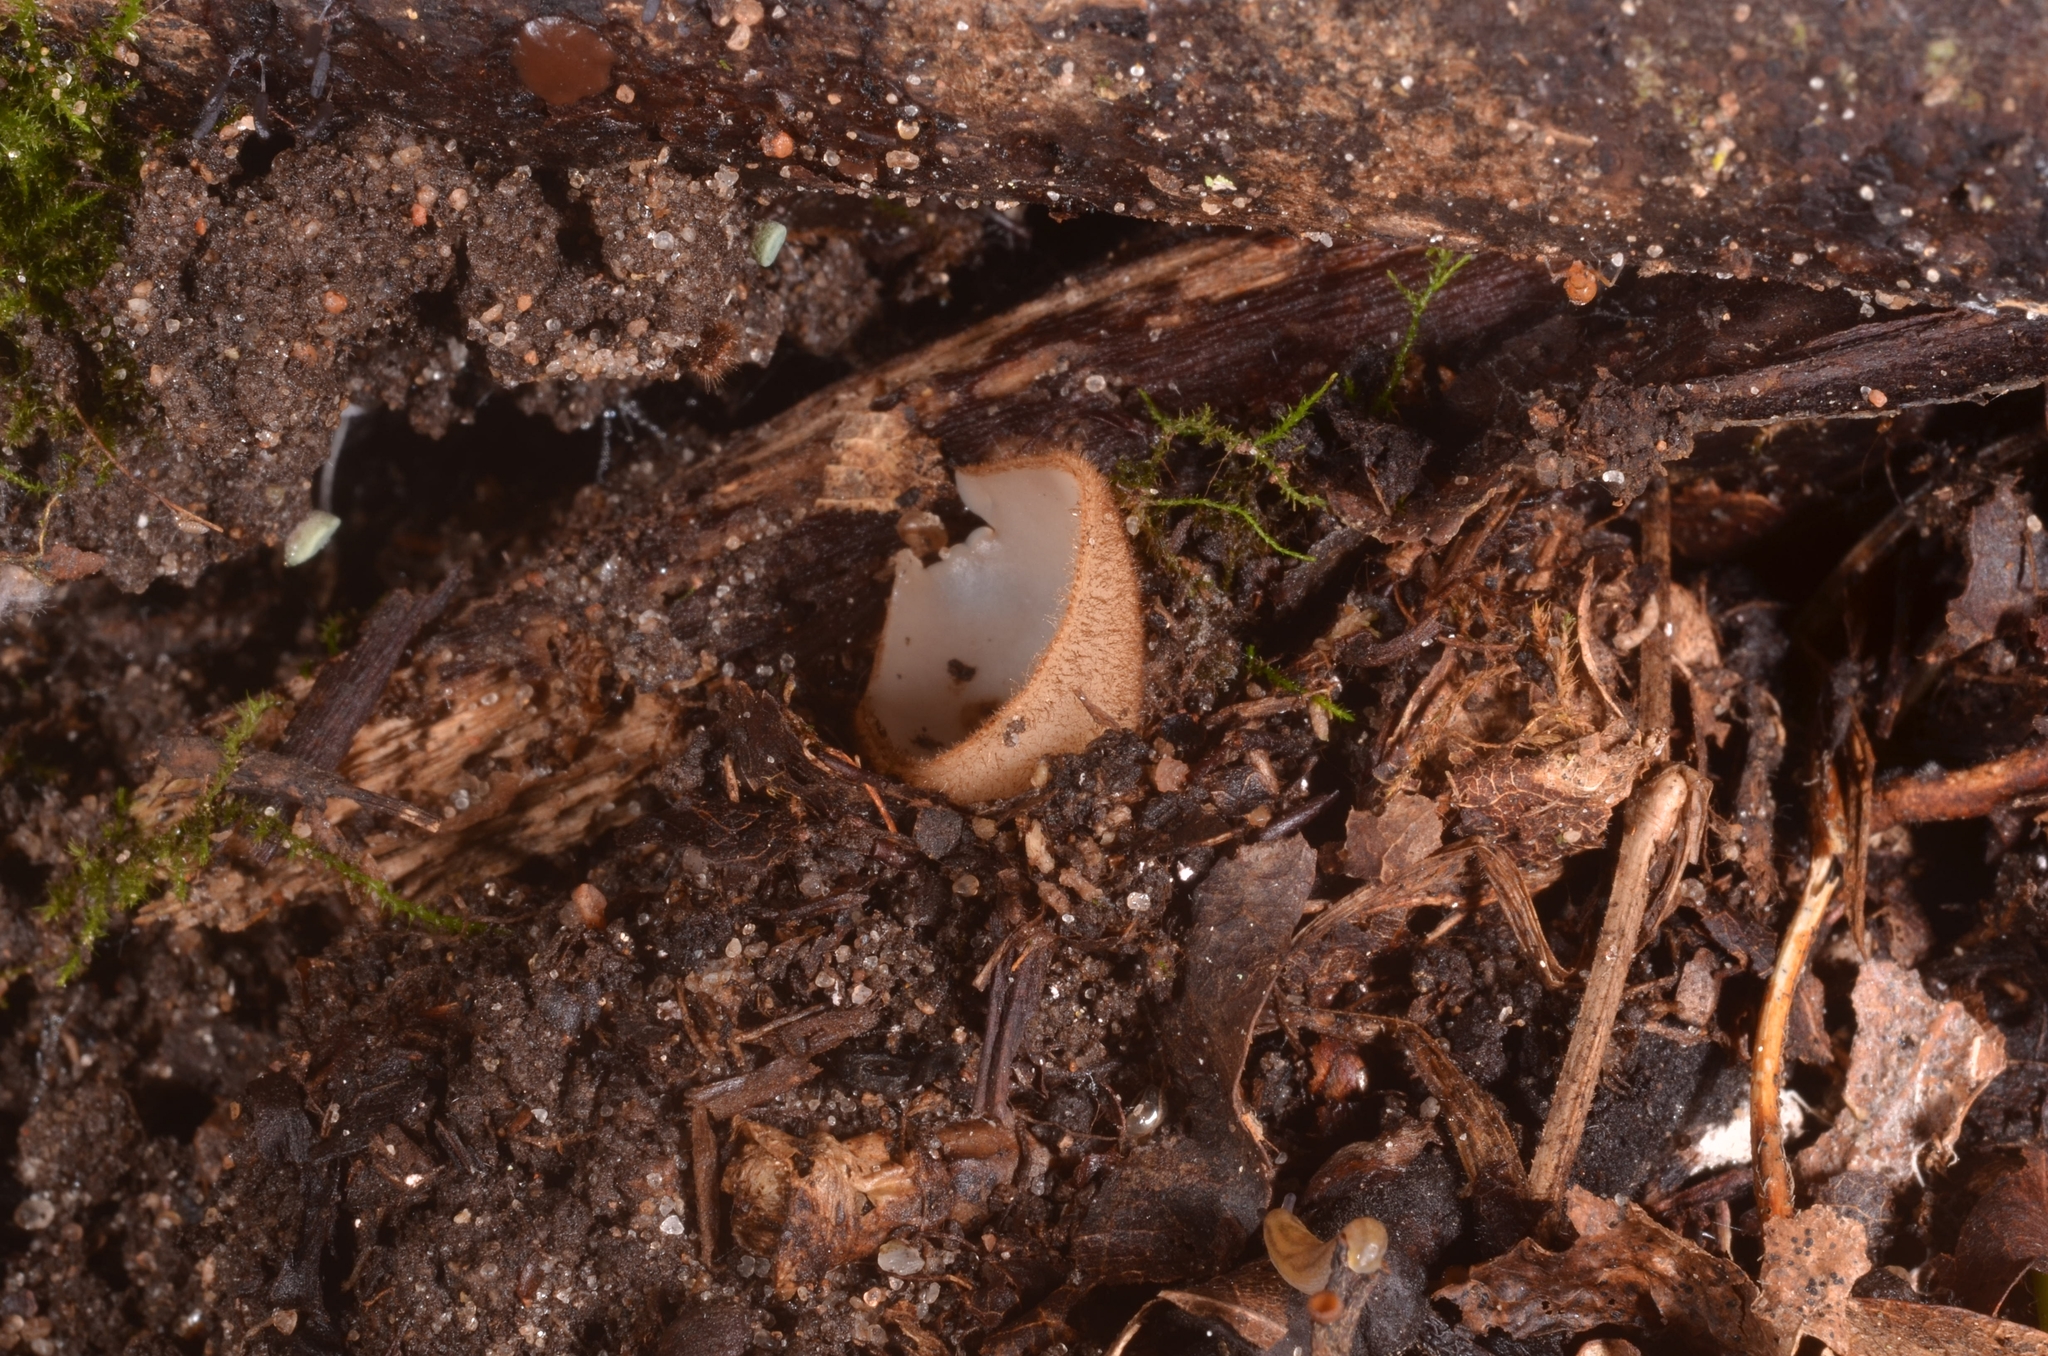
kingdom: Fungi
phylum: Ascomycota
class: Pezizomycetes
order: Pezizales
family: Pyronemataceae
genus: Humaria
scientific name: Humaria hemisphaerica
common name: Glazed cup
